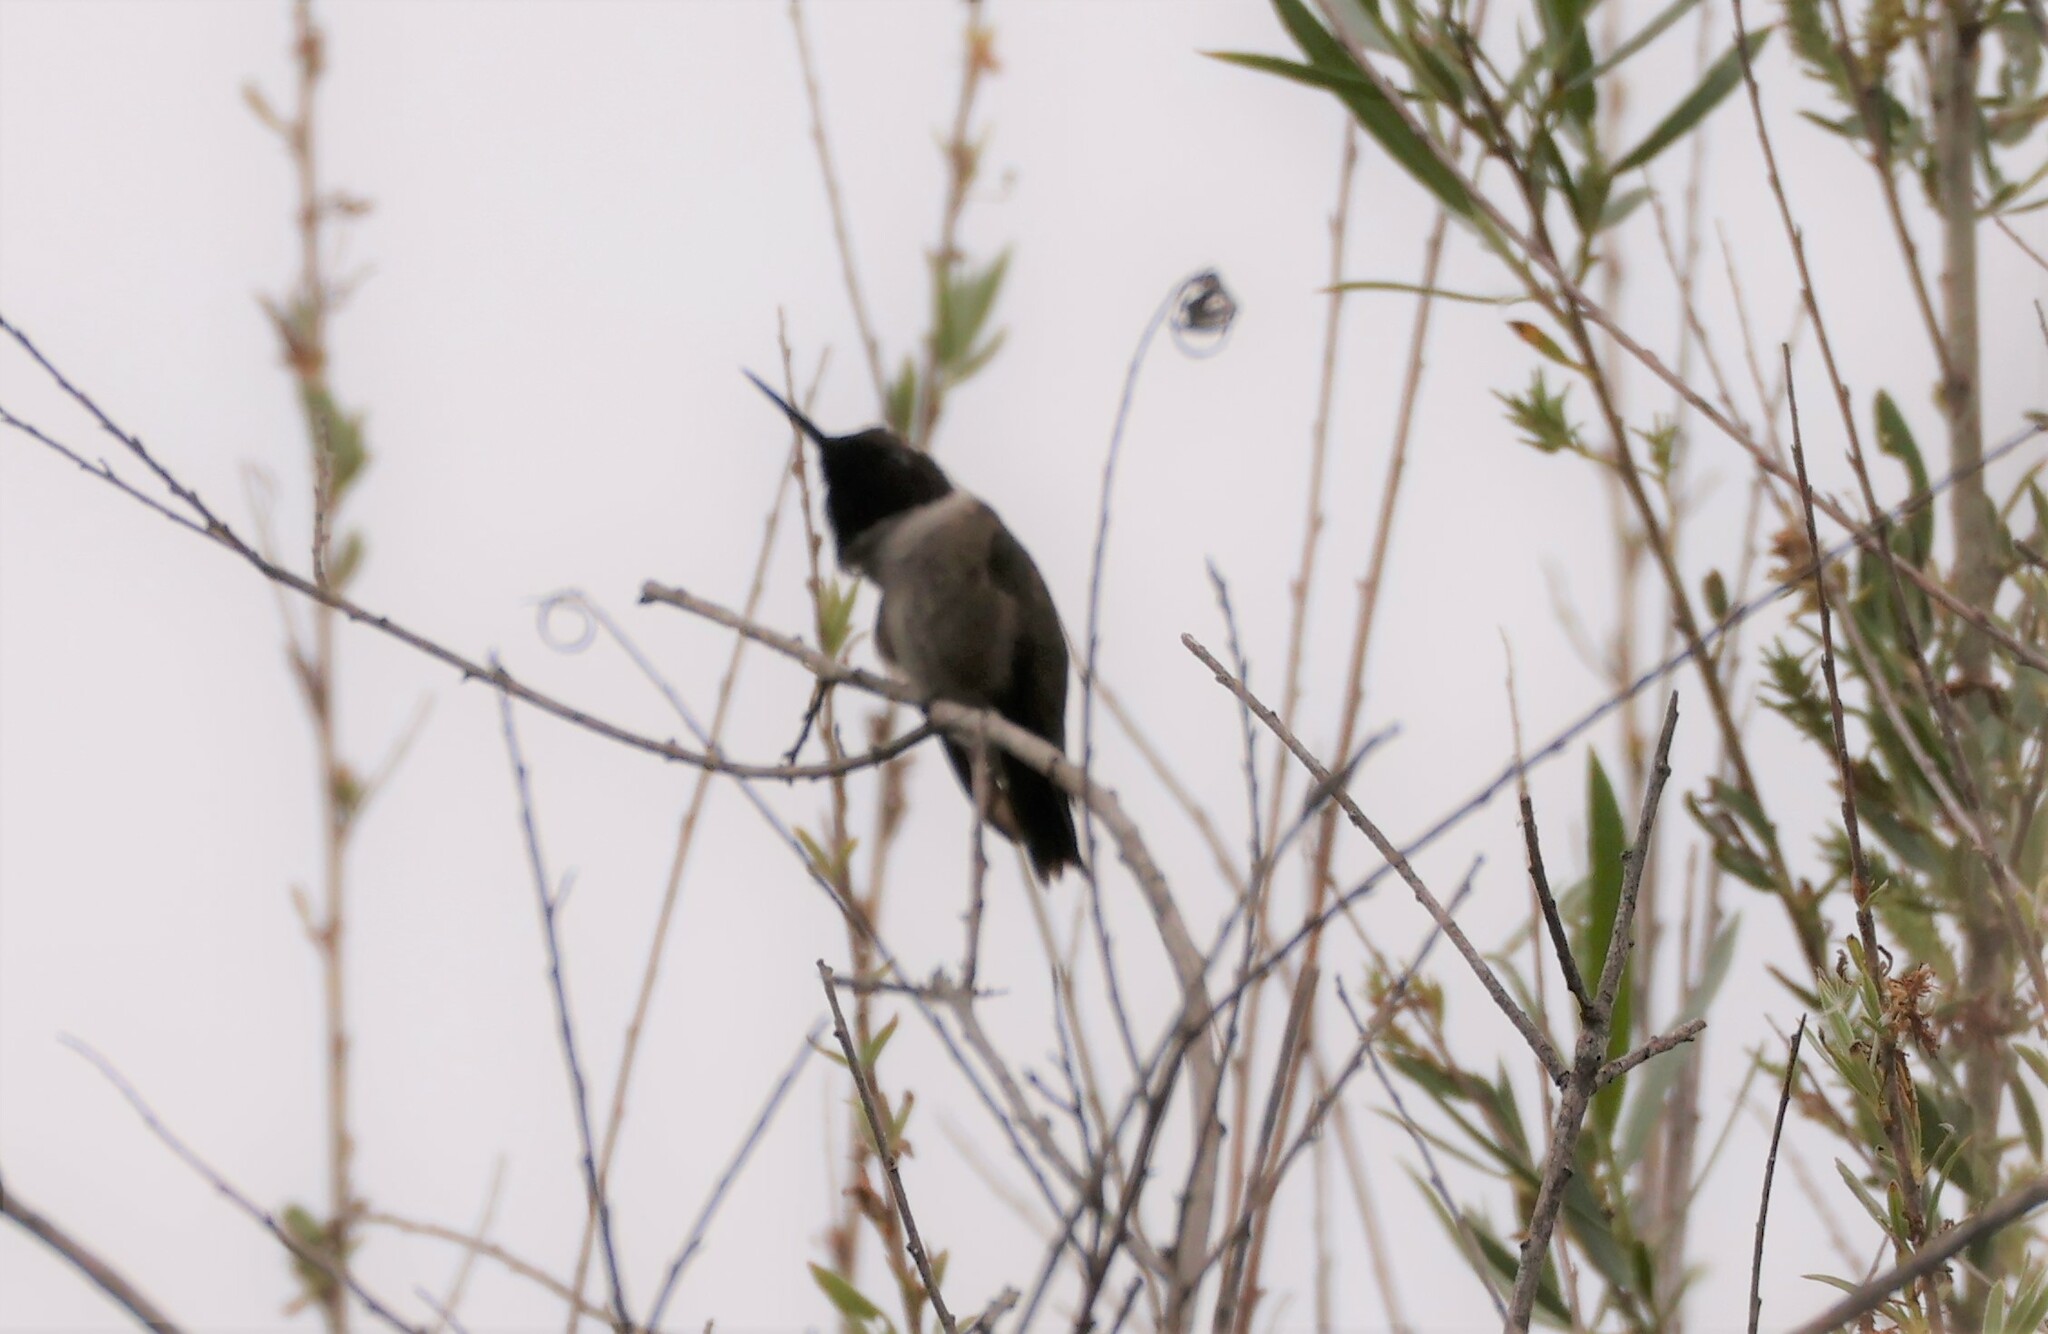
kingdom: Animalia
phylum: Chordata
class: Aves
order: Apodiformes
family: Trochilidae
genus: Archilochus
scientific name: Archilochus alexandri
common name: Black-chinned hummingbird
